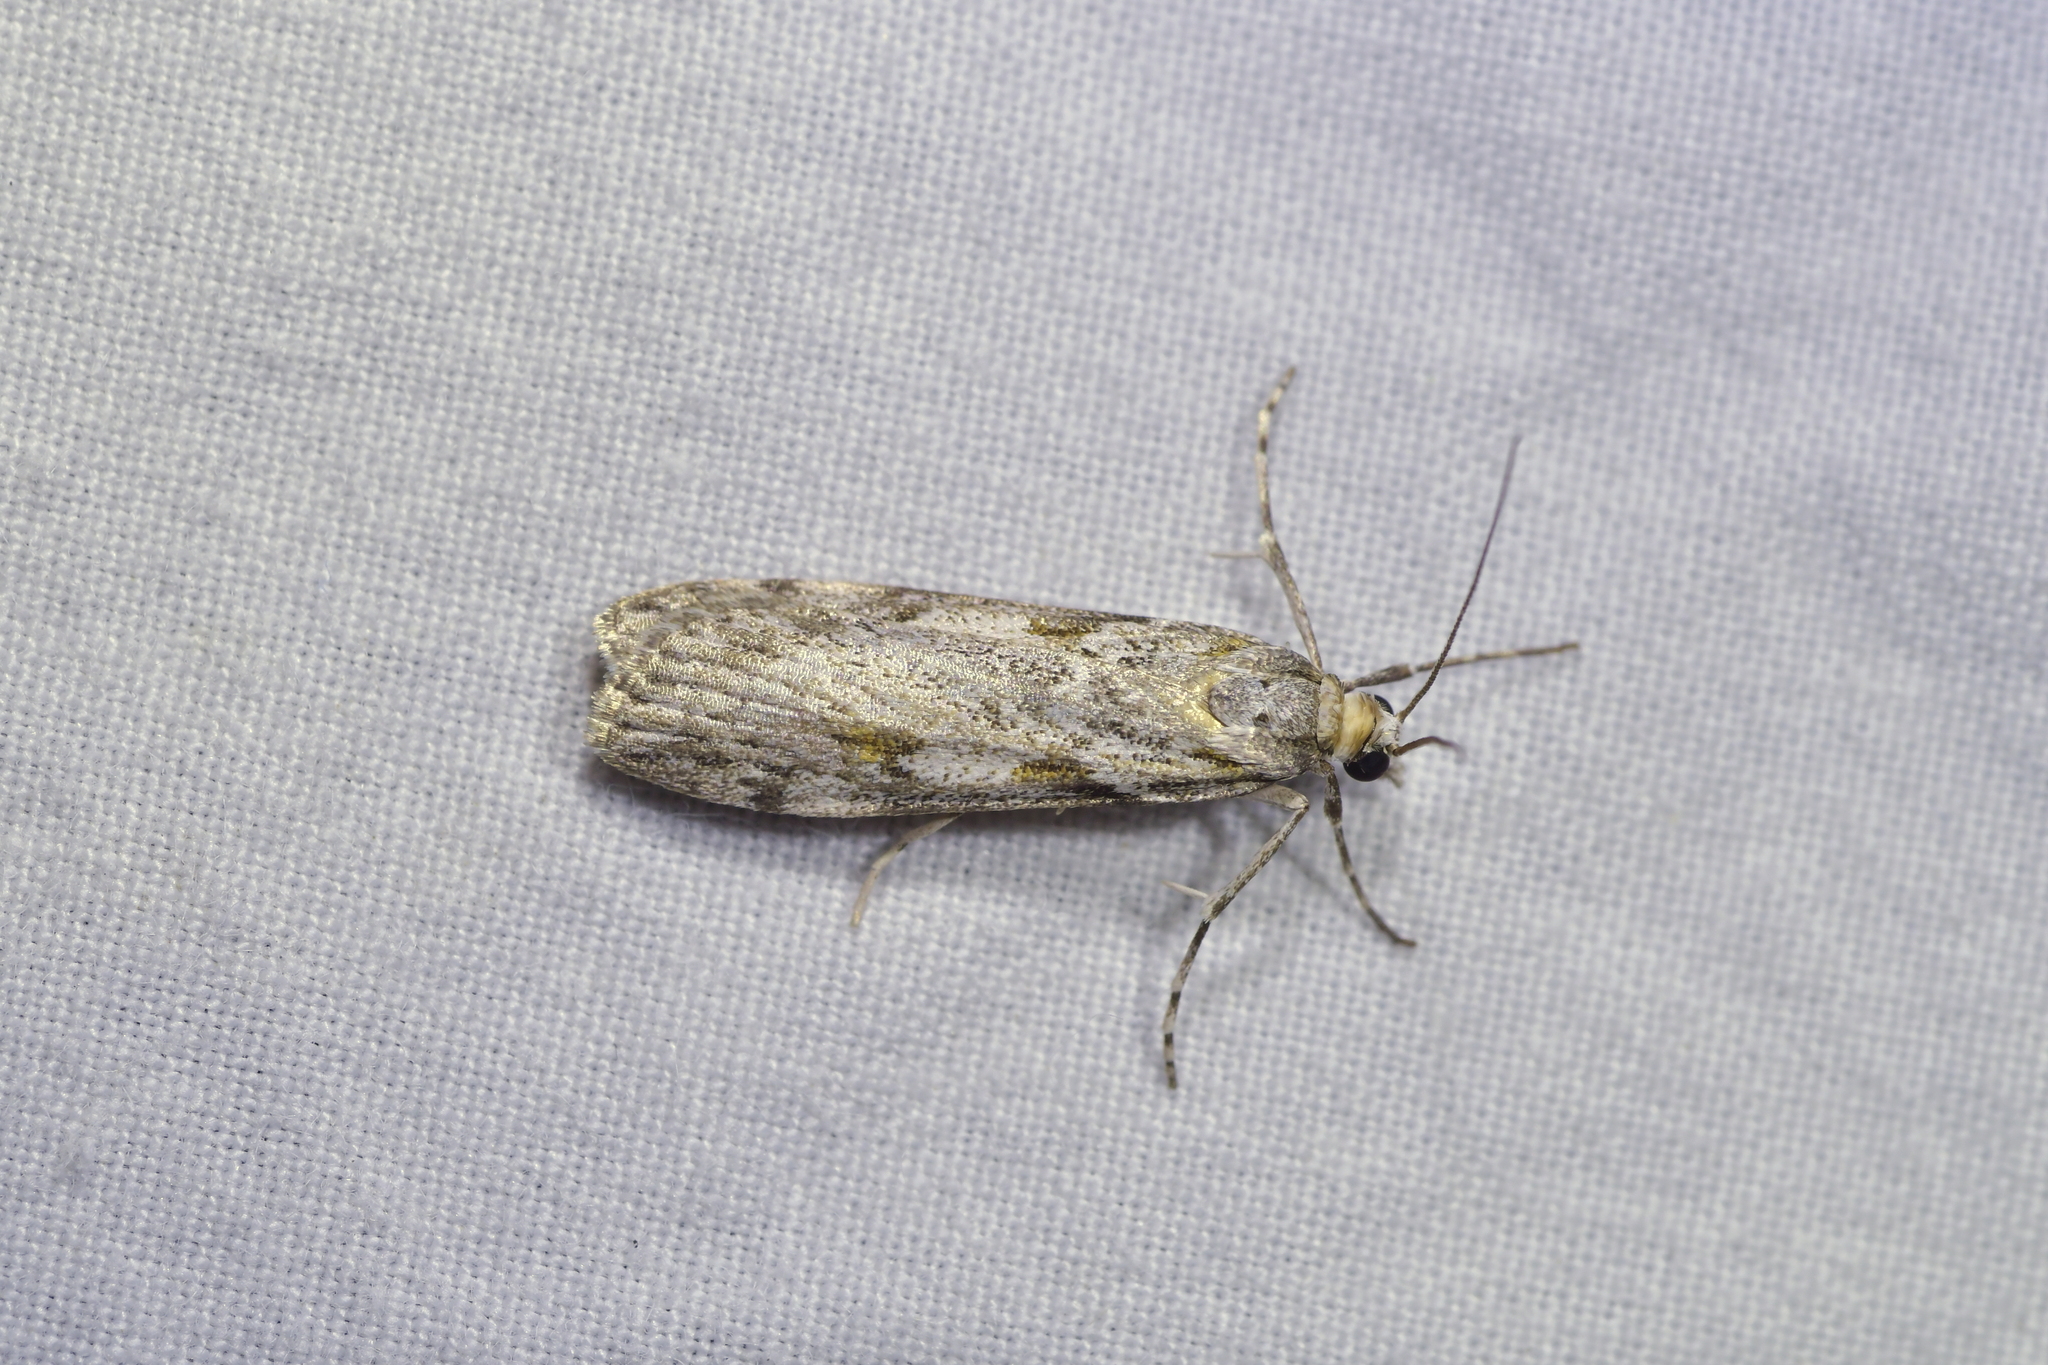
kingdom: Animalia
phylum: Arthropoda
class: Insecta
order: Lepidoptera
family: Crambidae
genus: Scoparia
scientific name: Scoparia halopis
